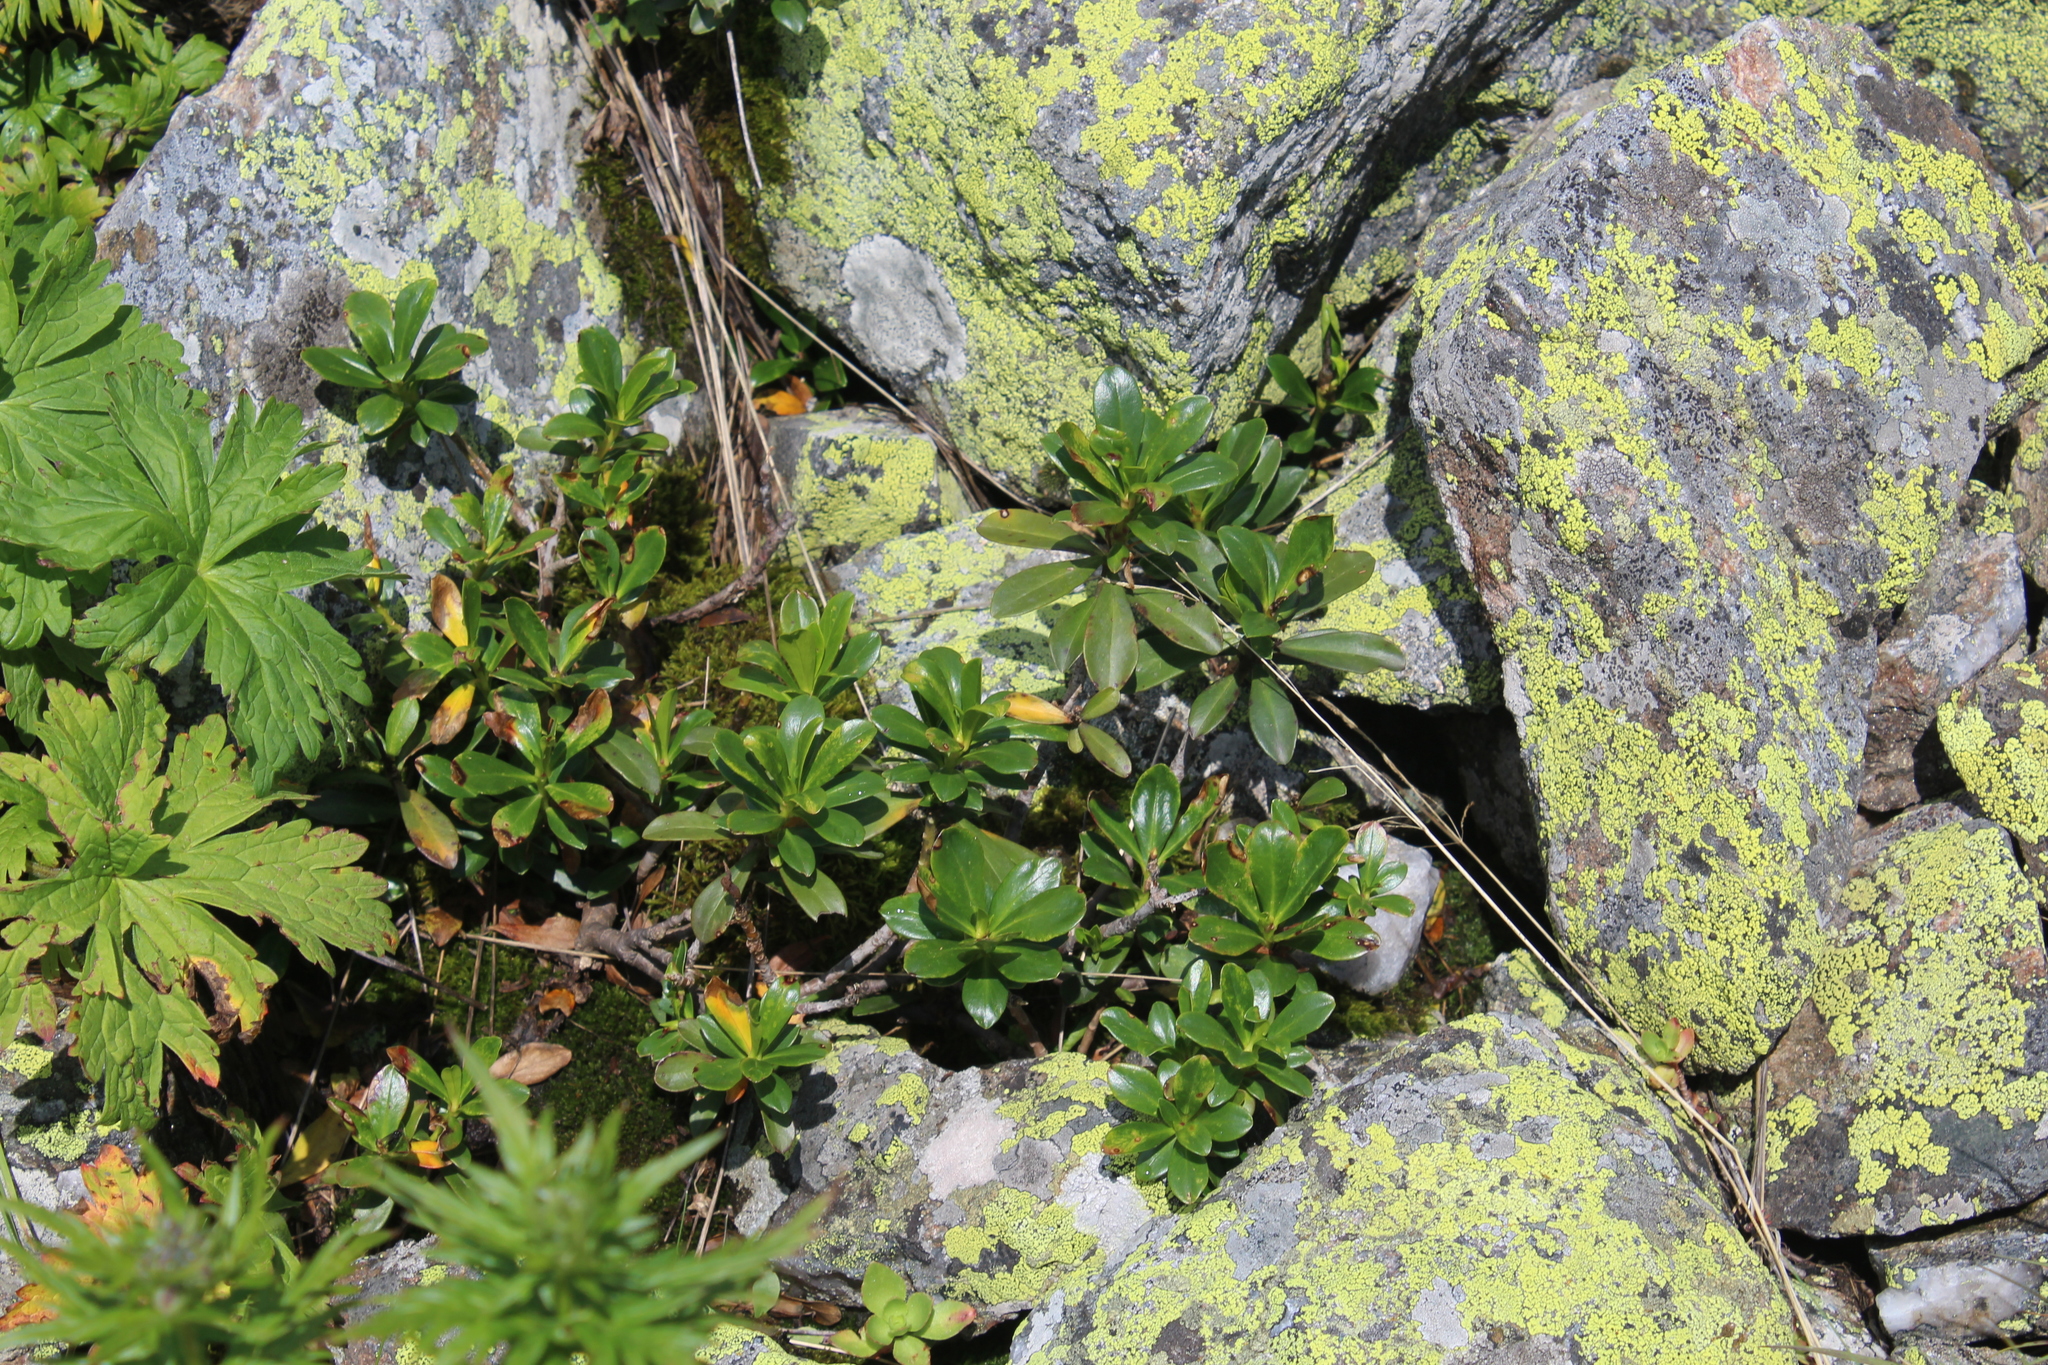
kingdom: Plantae
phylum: Tracheophyta
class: Magnoliopsida
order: Malvales
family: Thymelaeaceae
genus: Daphne
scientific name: Daphne glomerata
